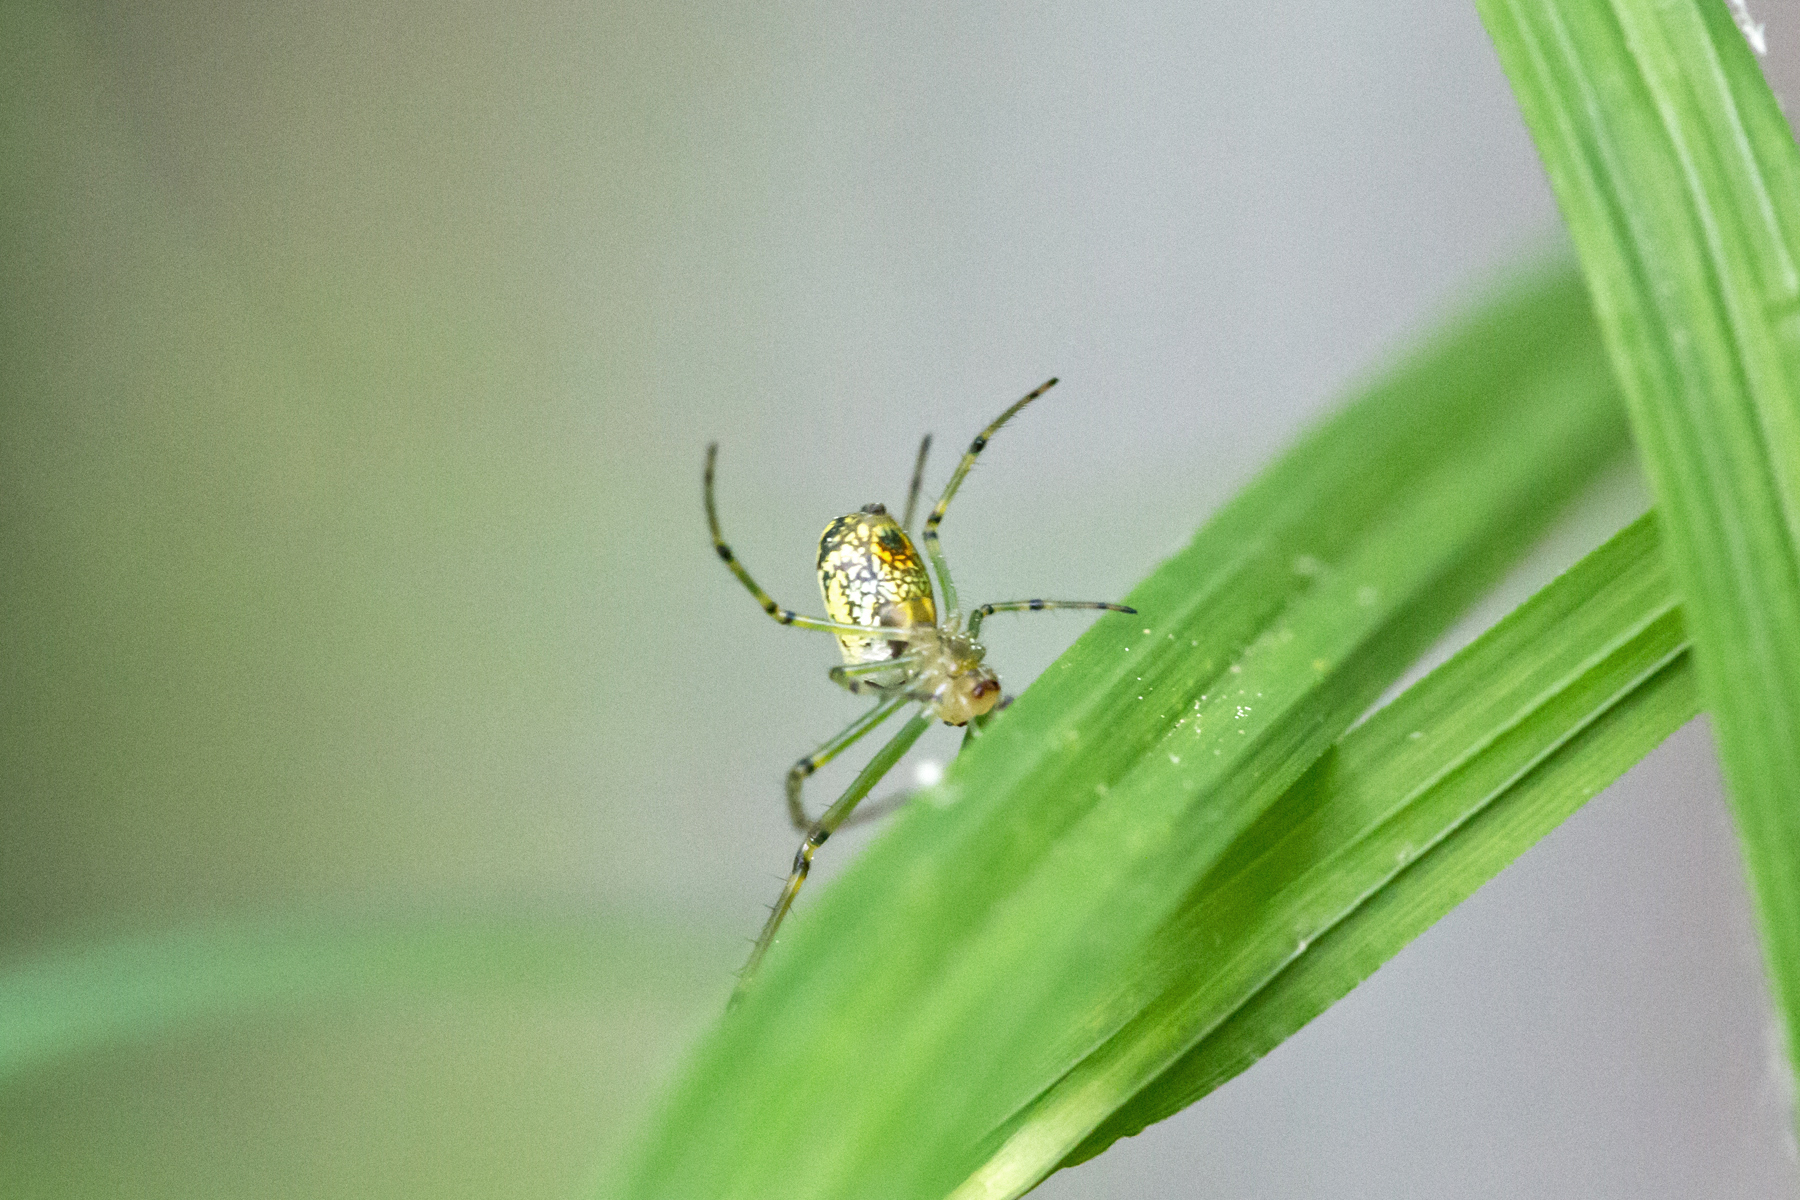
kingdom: Animalia
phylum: Arthropoda
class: Arachnida
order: Araneae
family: Tetragnathidae
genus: Leucauge
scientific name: Leucauge venusta
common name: Longjawed orb weavers
